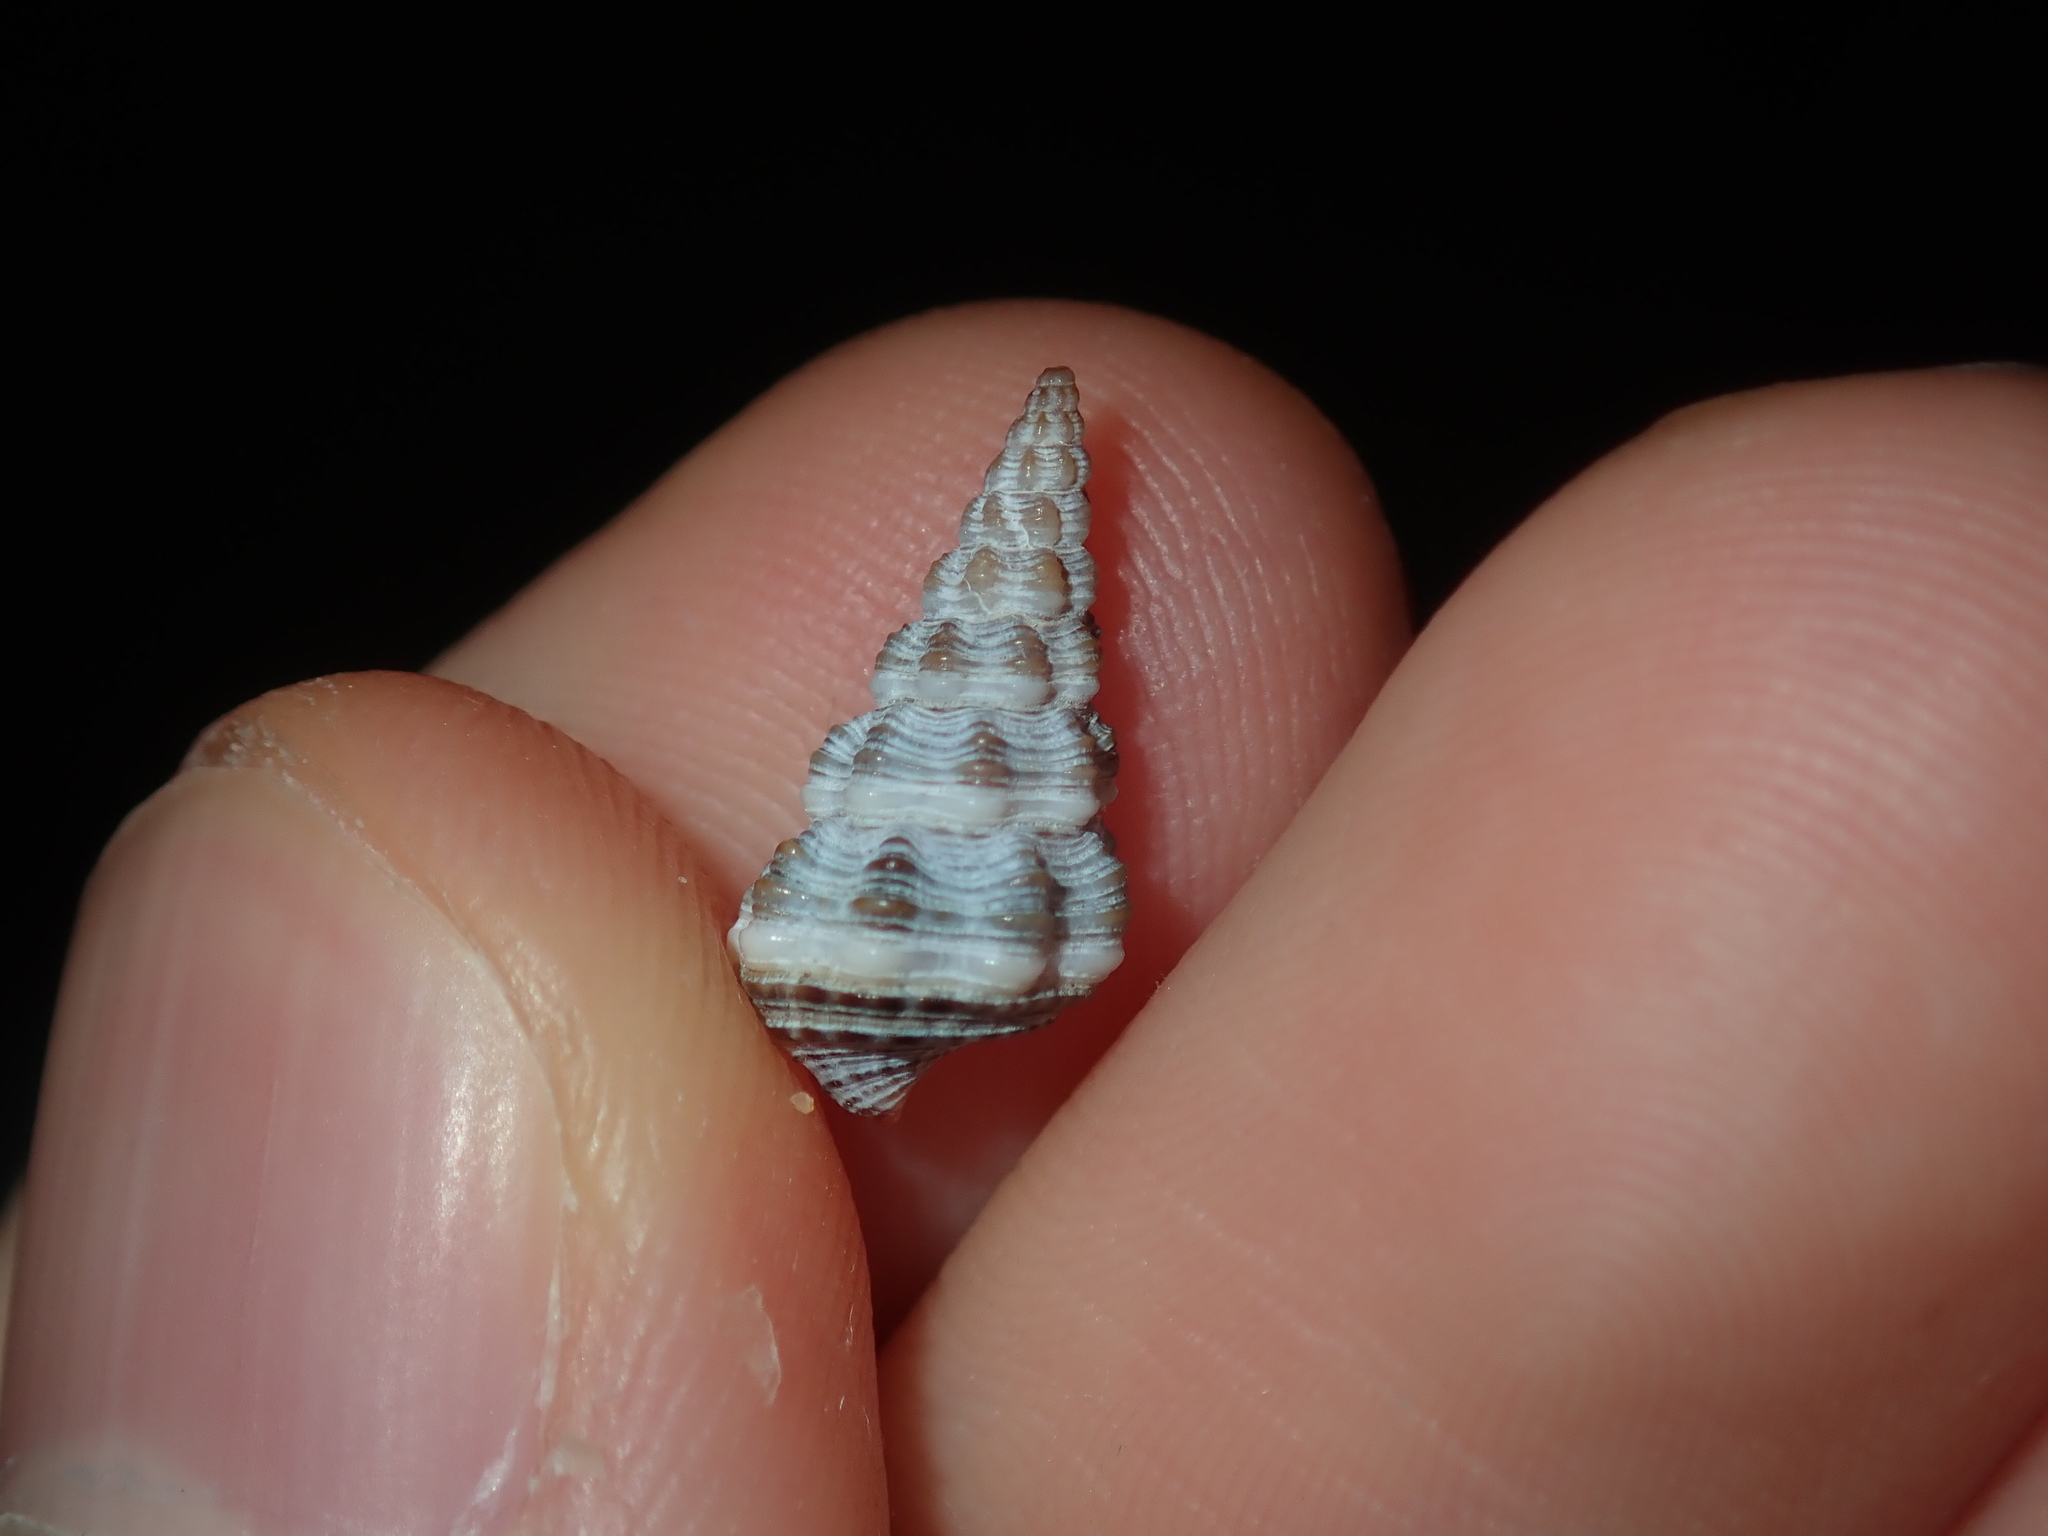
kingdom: Animalia
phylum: Mollusca
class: Gastropoda
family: Batillariidae
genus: Batillaria
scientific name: Batillaria australis
